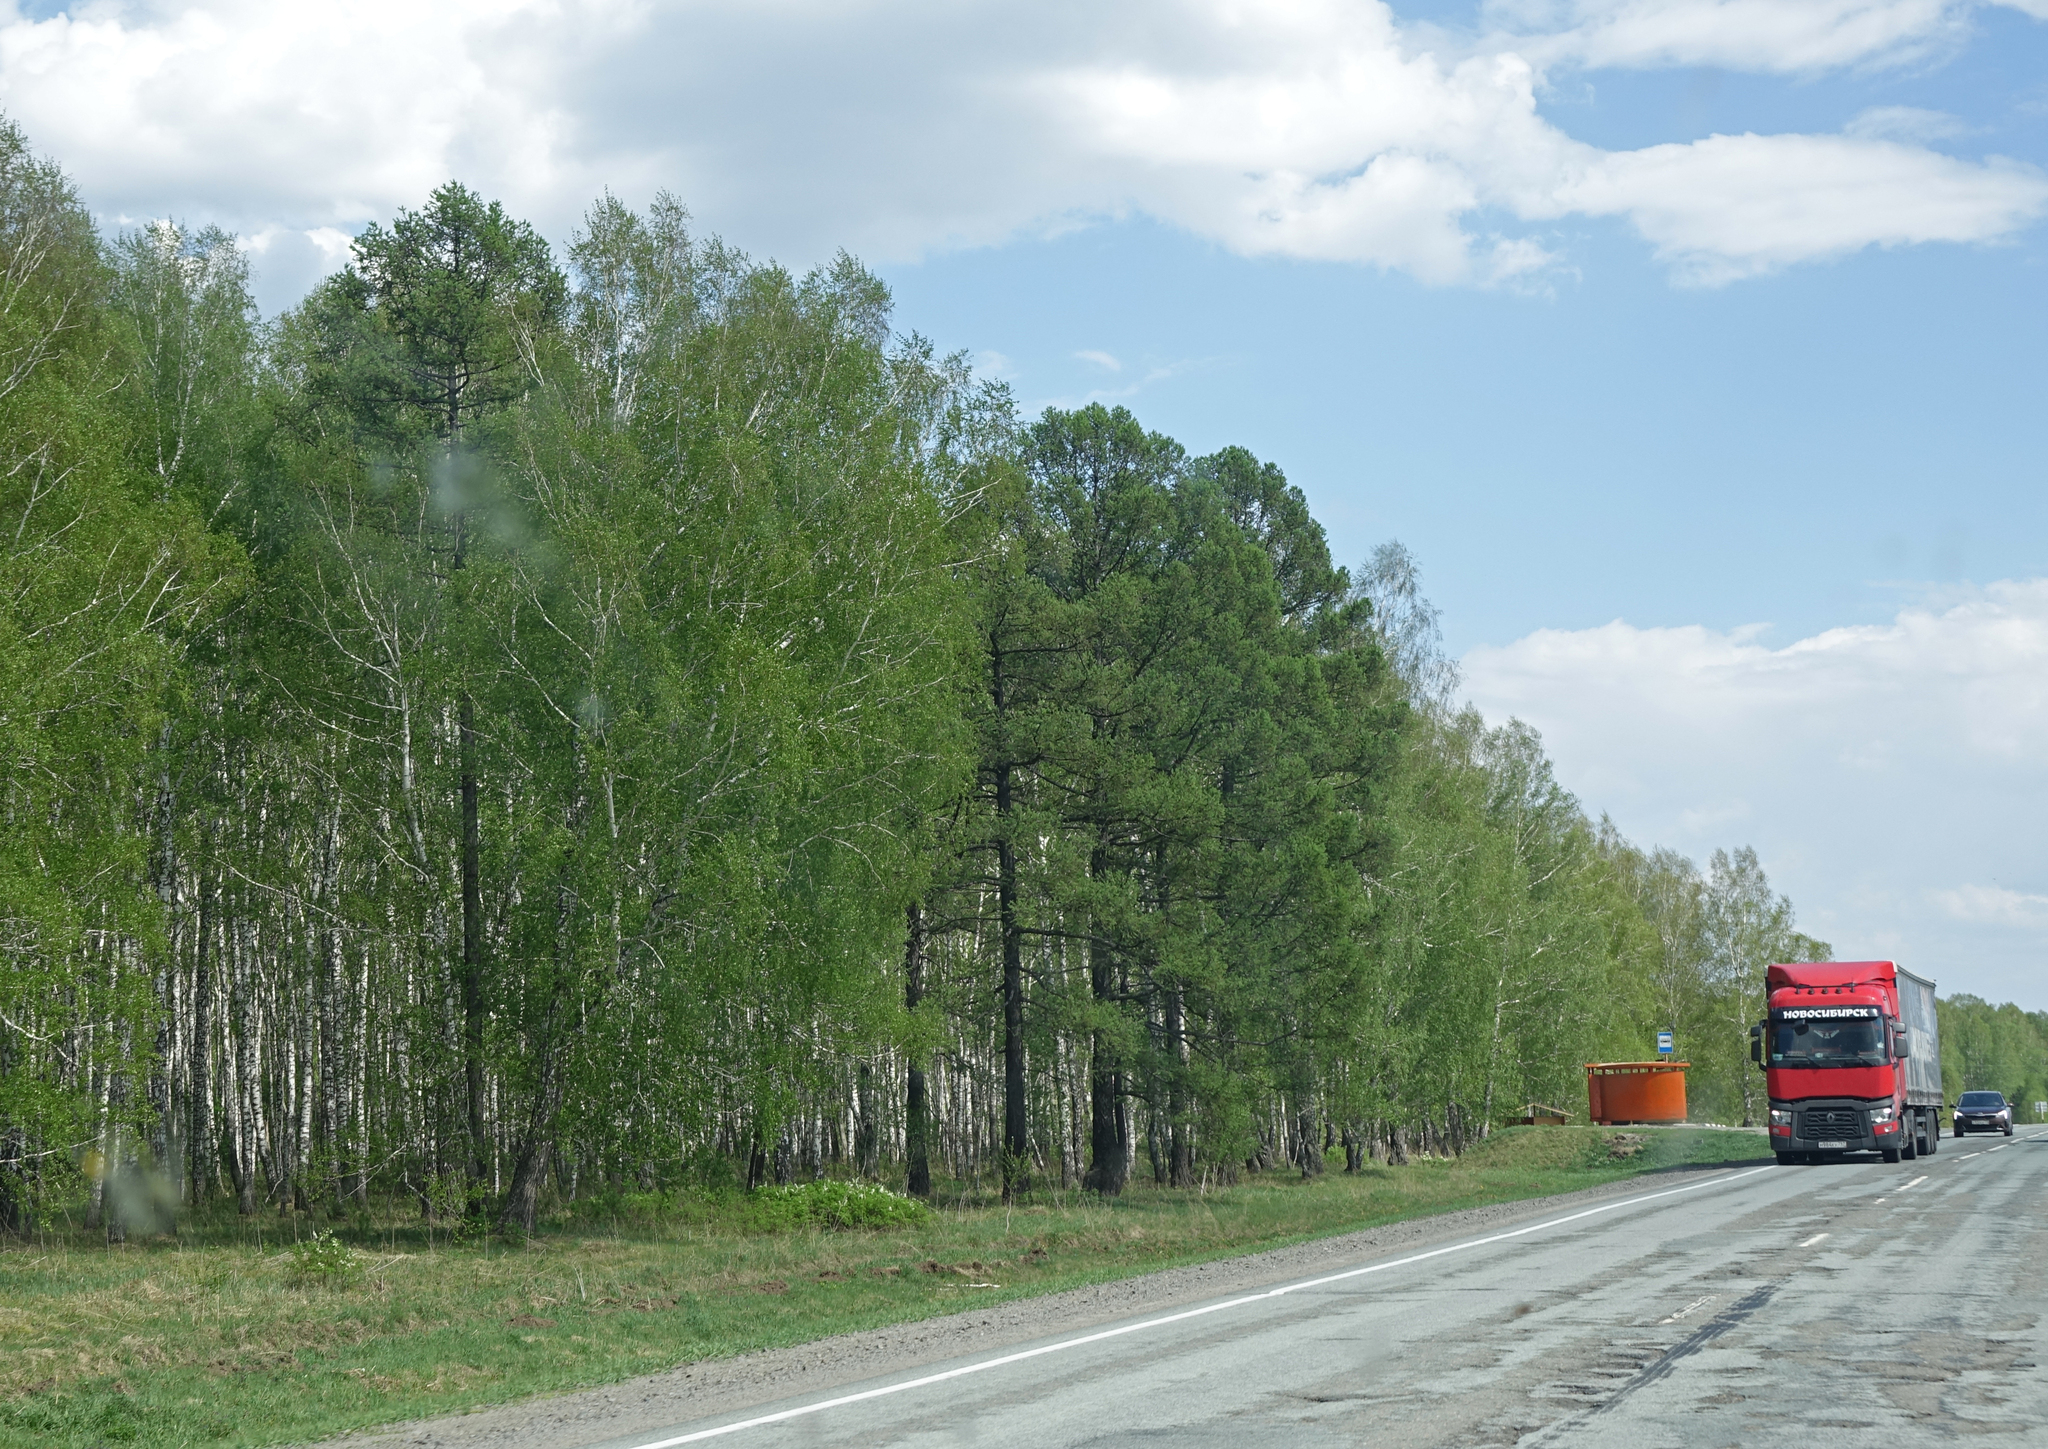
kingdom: Plantae
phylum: Tracheophyta
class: Pinopsida
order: Pinales
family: Pinaceae
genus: Larix
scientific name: Larix sibirica
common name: Siberian larch
